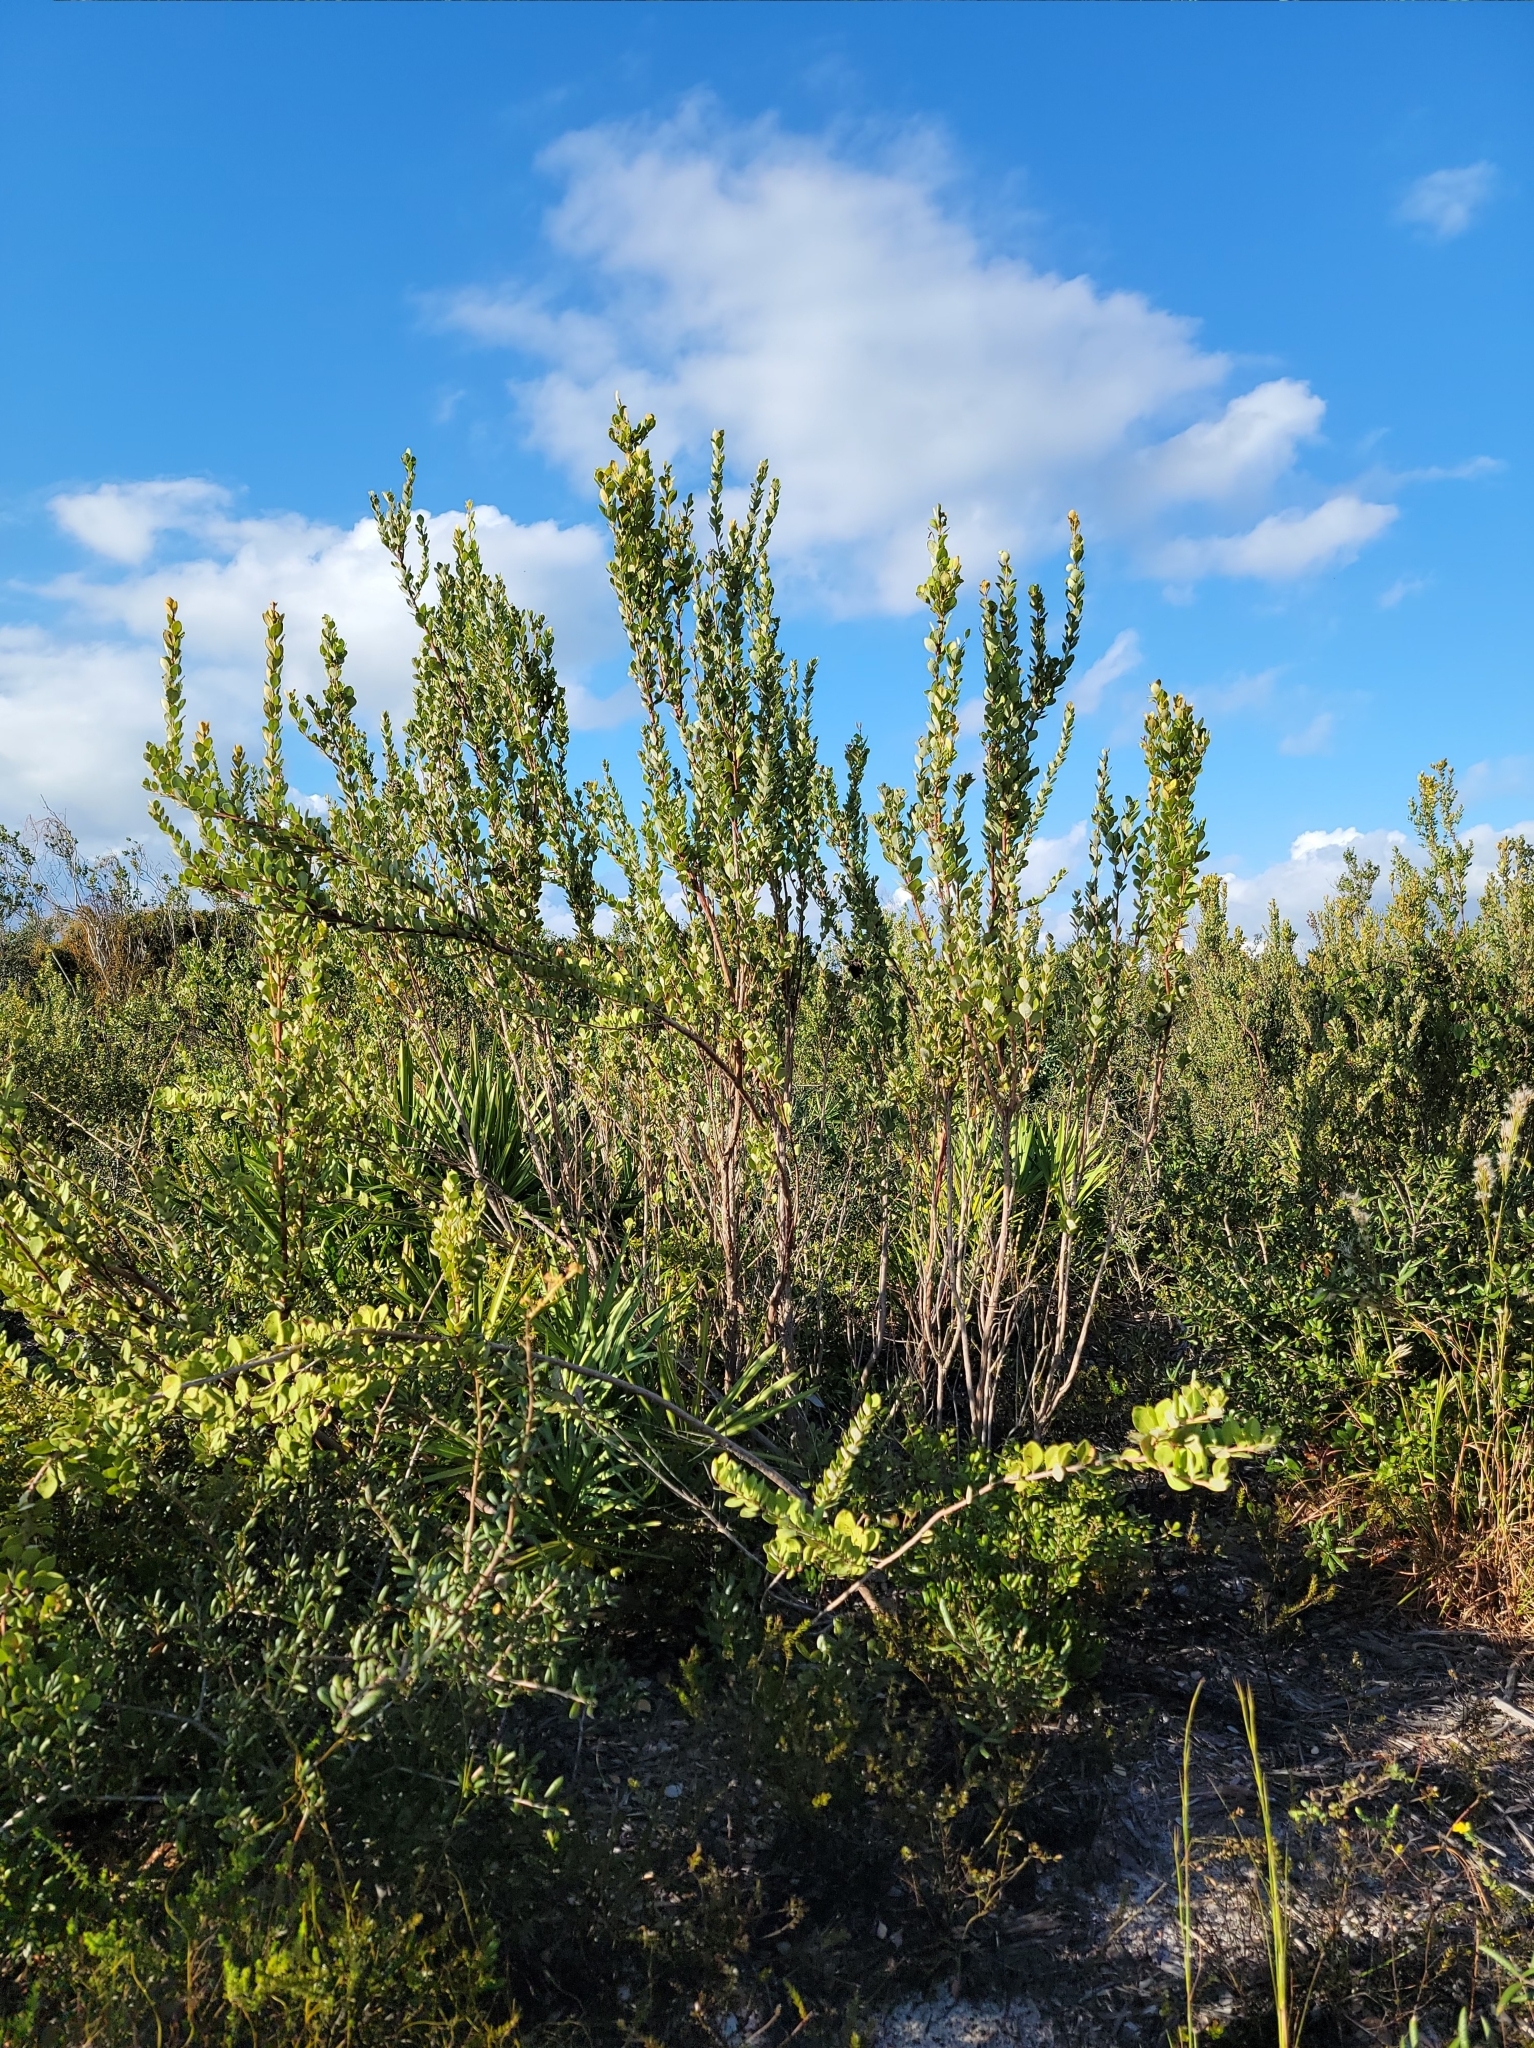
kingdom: Plantae
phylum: Tracheophyta
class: Magnoliopsida
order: Ericales
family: Ericaceae
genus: Lyonia
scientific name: Lyonia fruticosa
